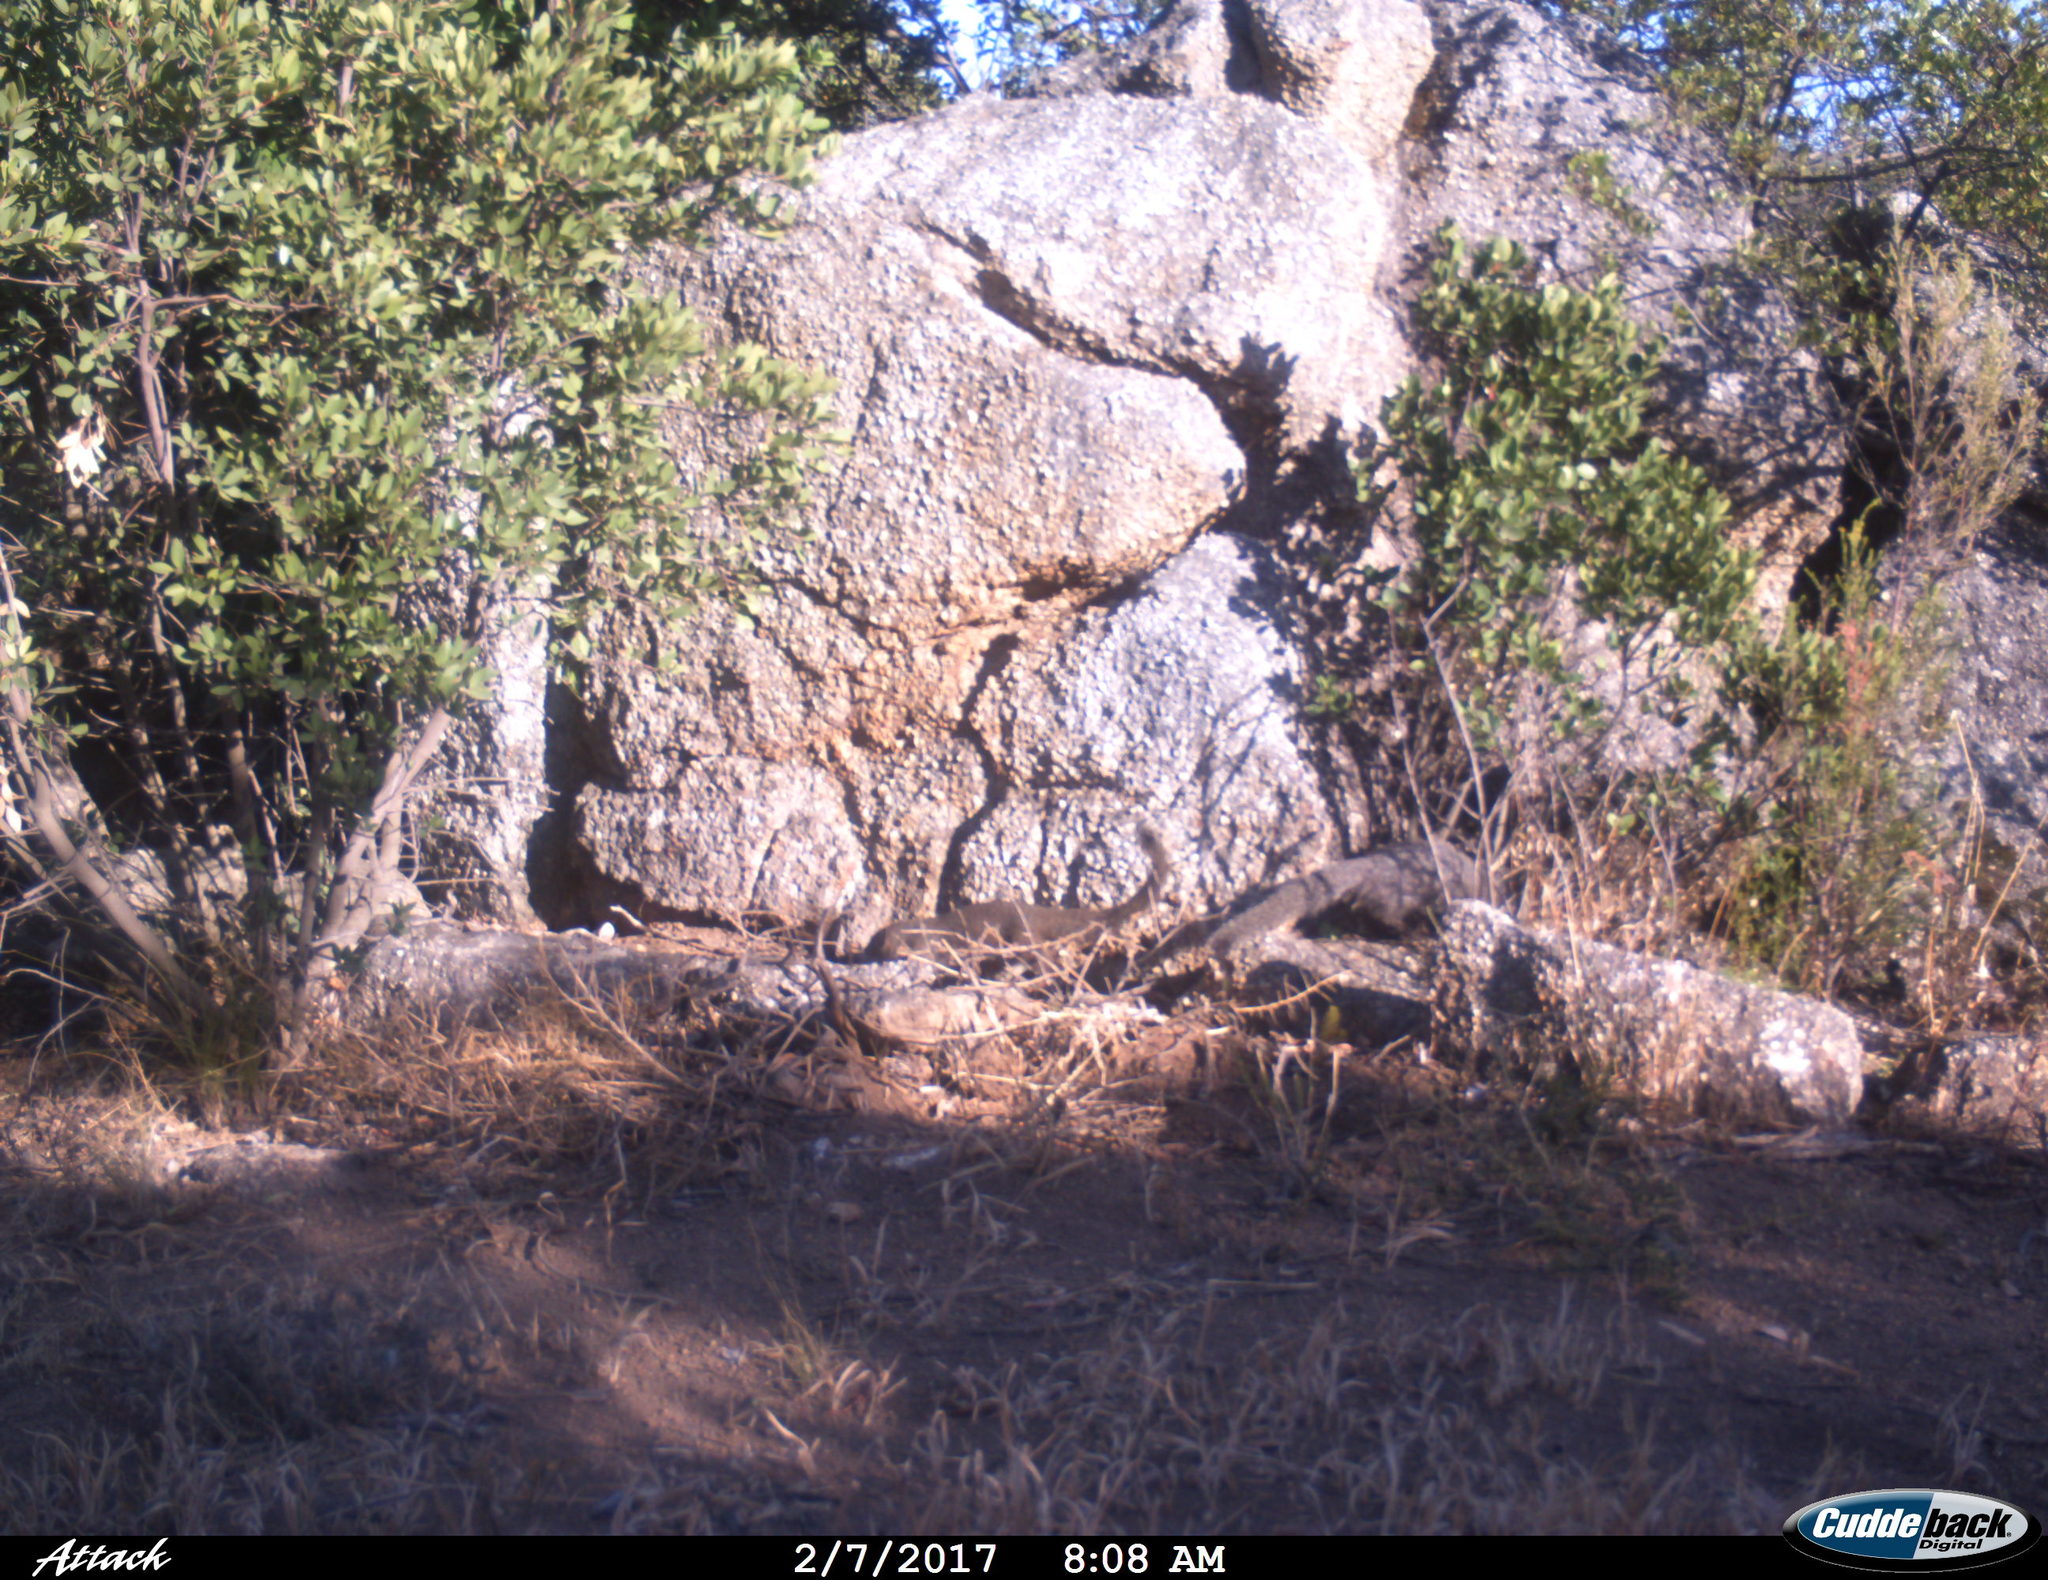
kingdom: Animalia
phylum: Chordata
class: Mammalia
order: Carnivora
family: Herpestidae
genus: Galerella
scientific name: Galerella pulverulenta
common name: Cape gray mongoose
